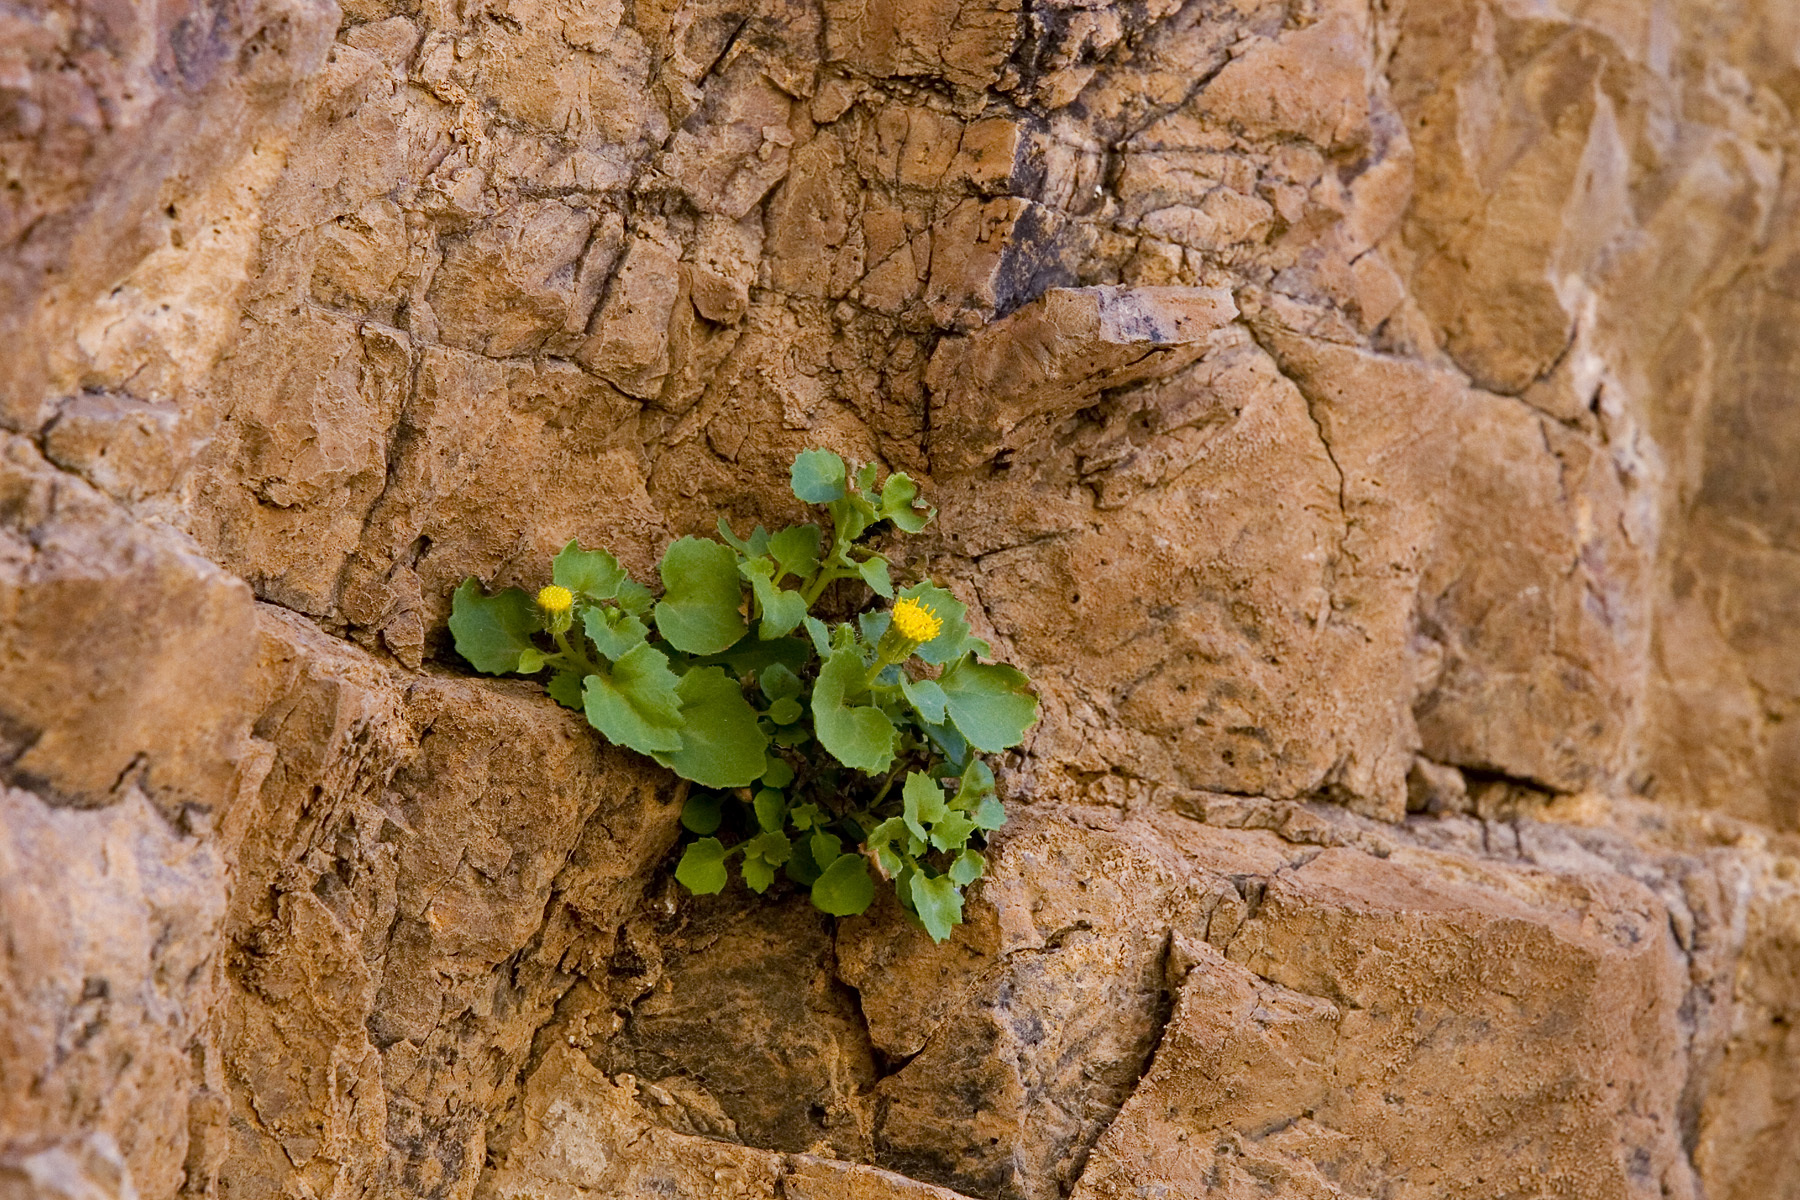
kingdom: Plantae
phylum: Tracheophyta
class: Magnoliopsida
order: Asterales
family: Asteraceae
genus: Laphamia
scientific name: Laphamia cernua
